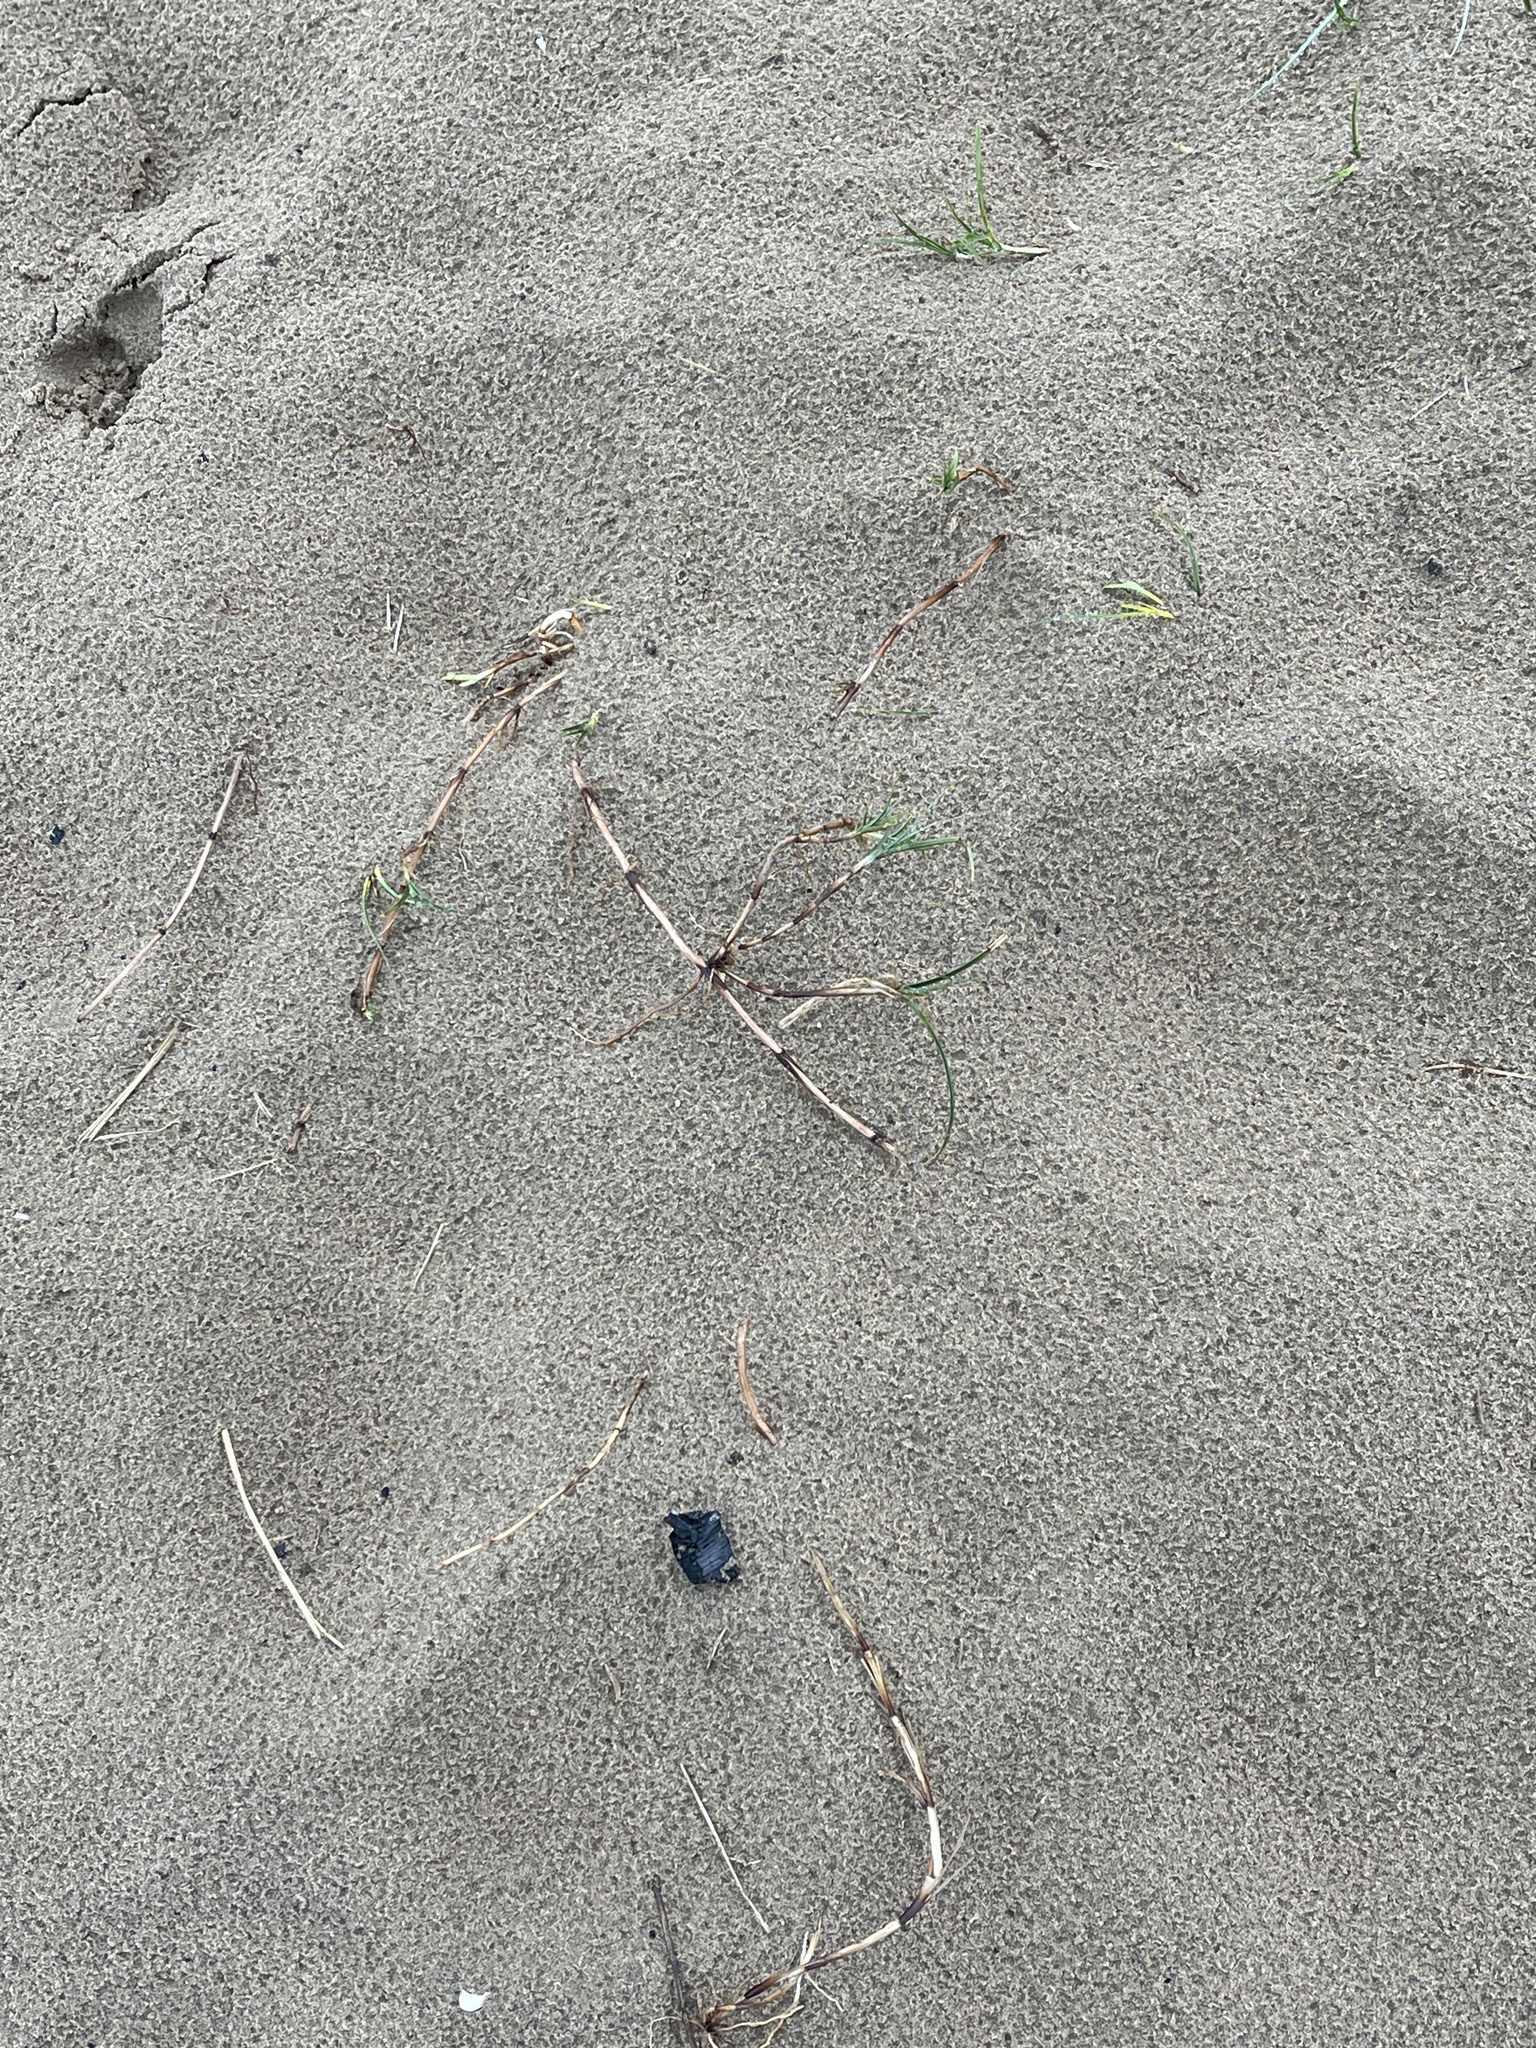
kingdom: Plantae
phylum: Tracheophyta
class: Liliopsida
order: Poales
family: Cyperaceae
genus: Carex
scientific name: Carex arenaria
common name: Sand sedge
